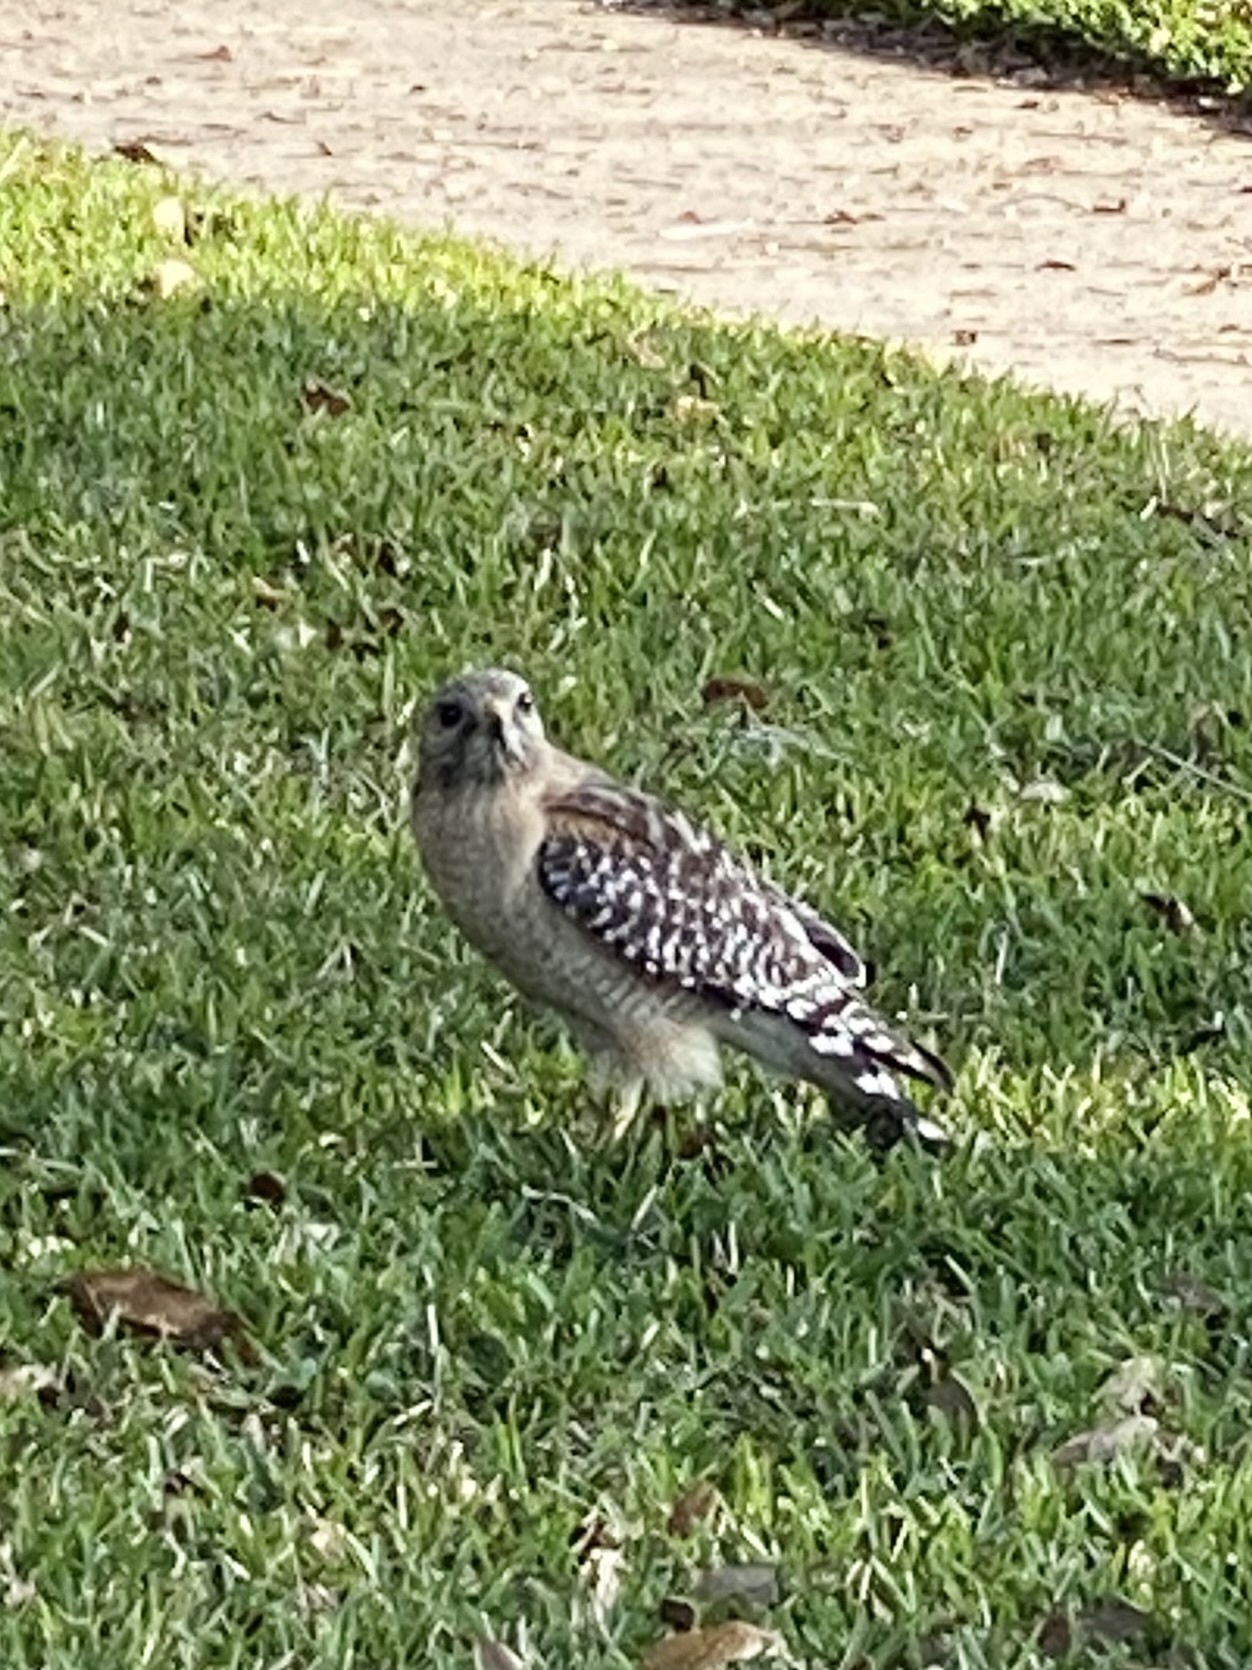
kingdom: Animalia
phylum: Chordata
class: Aves
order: Accipitriformes
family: Accipitridae
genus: Buteo
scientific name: Buteo lineatus
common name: Red-shouldered hawk
